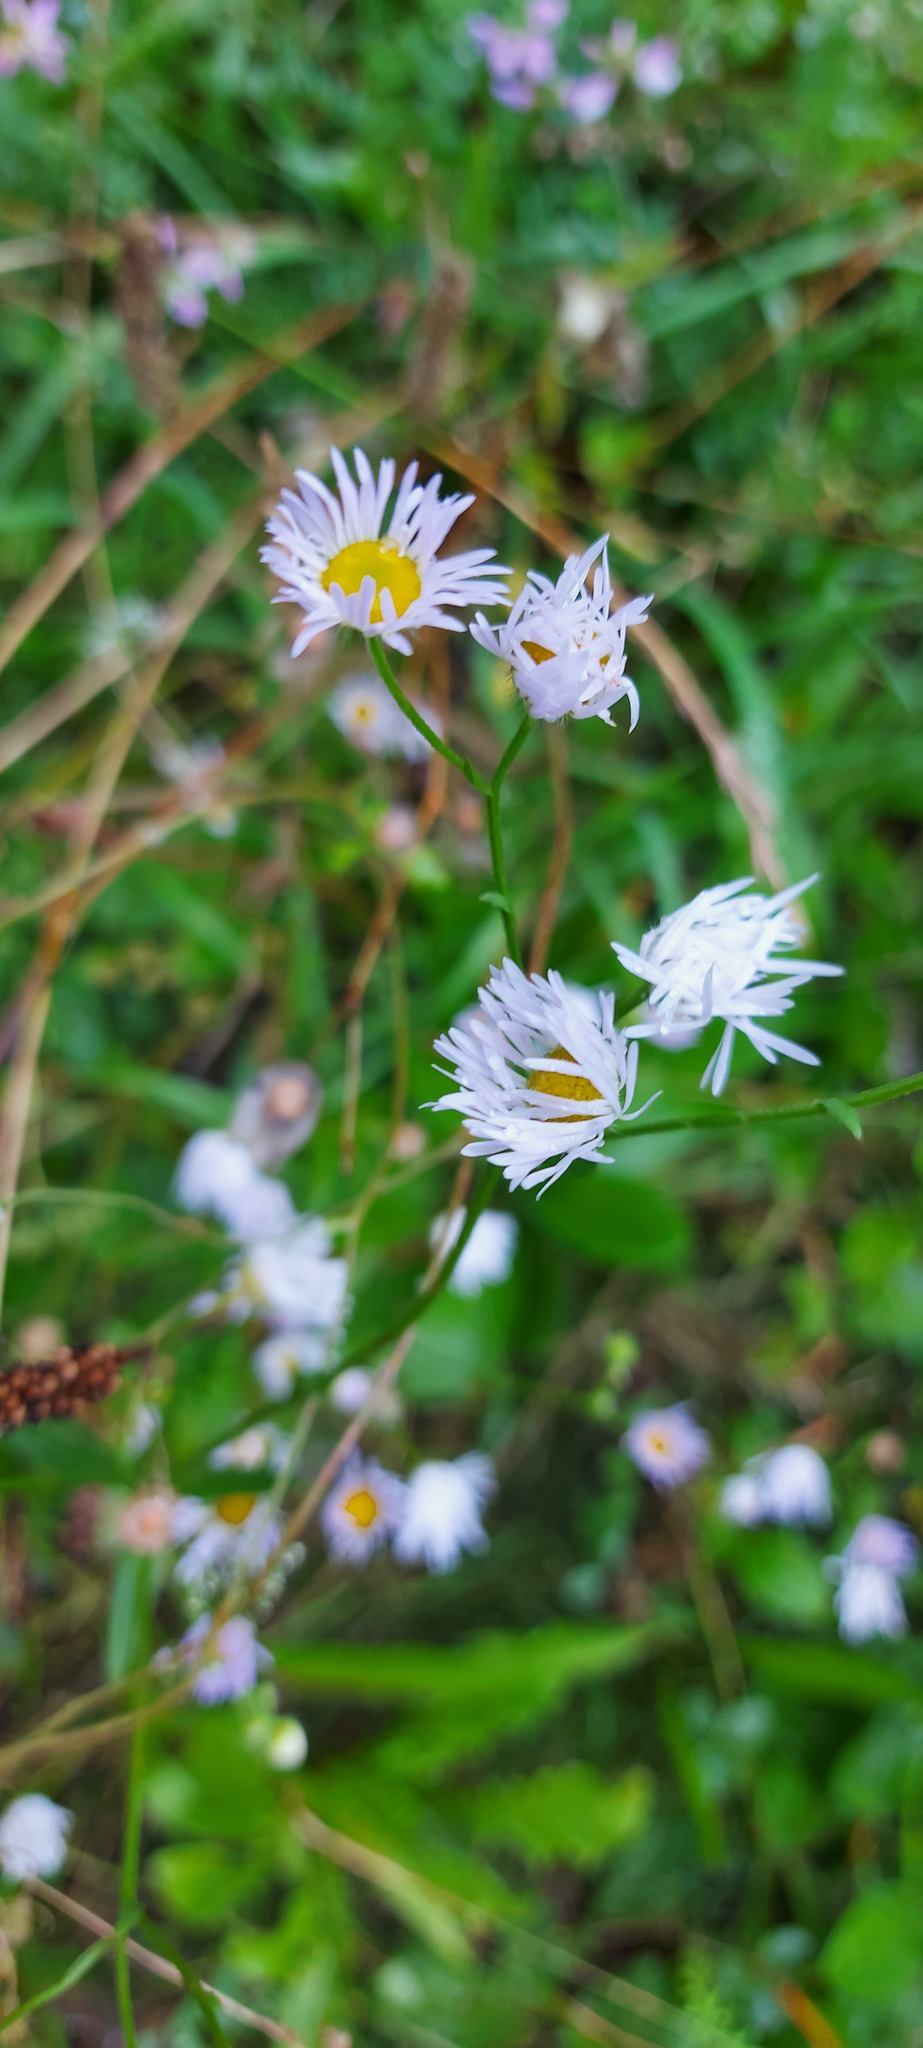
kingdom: Plantae
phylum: Tracheophyta
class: Magnoliopsida
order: Asterales
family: Asteraceae
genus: Erigeron
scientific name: Erigeron annuus
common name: Tall fleabane
